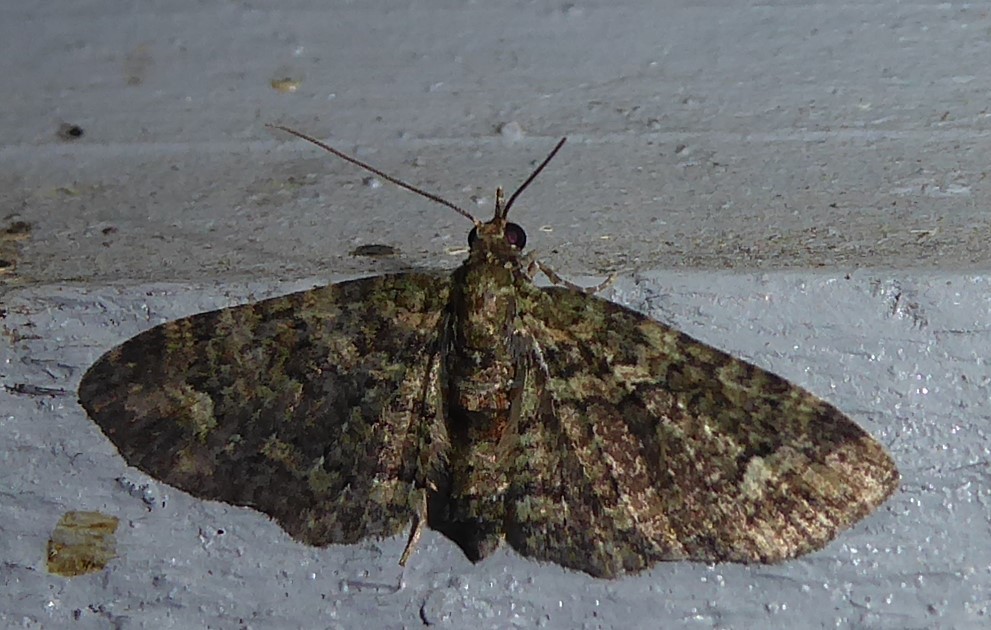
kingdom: Animalia
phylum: Arthropoda
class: Insecta
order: Lepidoptera
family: Geometridae
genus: Pasiphilodes
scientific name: Pasiphilodes testulata
